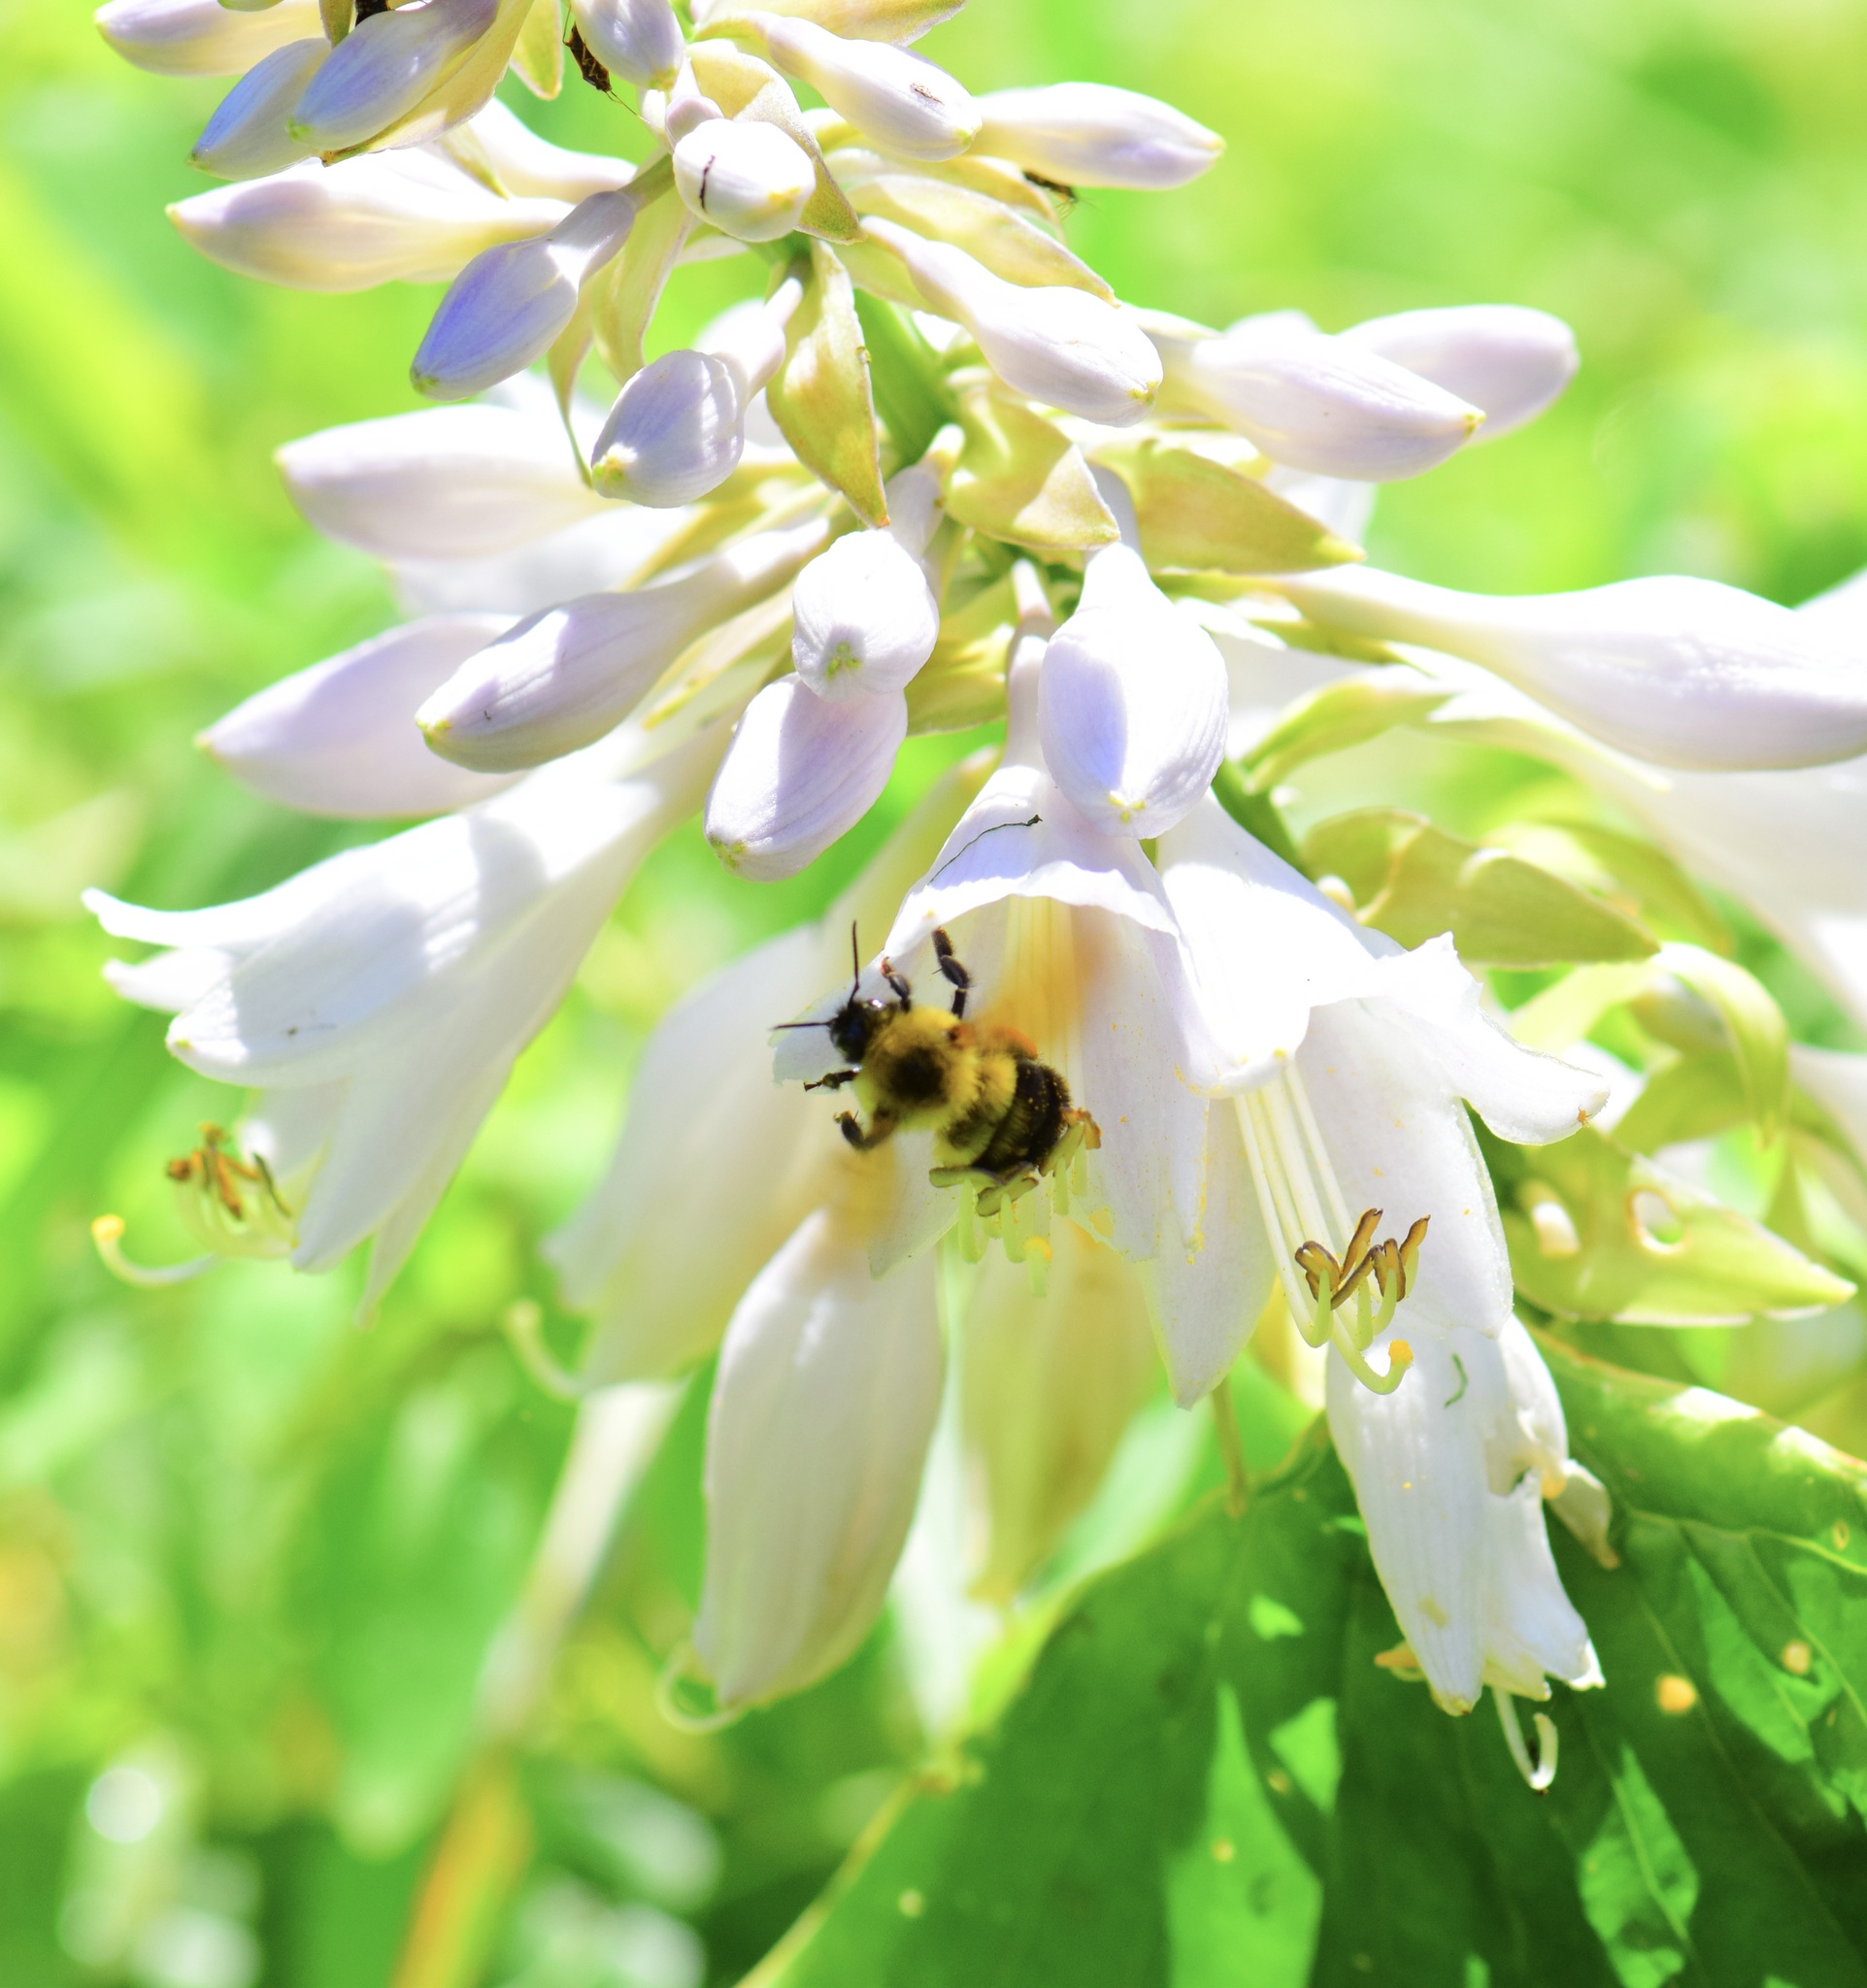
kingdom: Animalia
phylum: Arthropoda
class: Insecta
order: Hymenoptera
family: Apidae
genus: Bombus
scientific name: Bombus bimaculatus
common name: Two-spotted bumble bee
